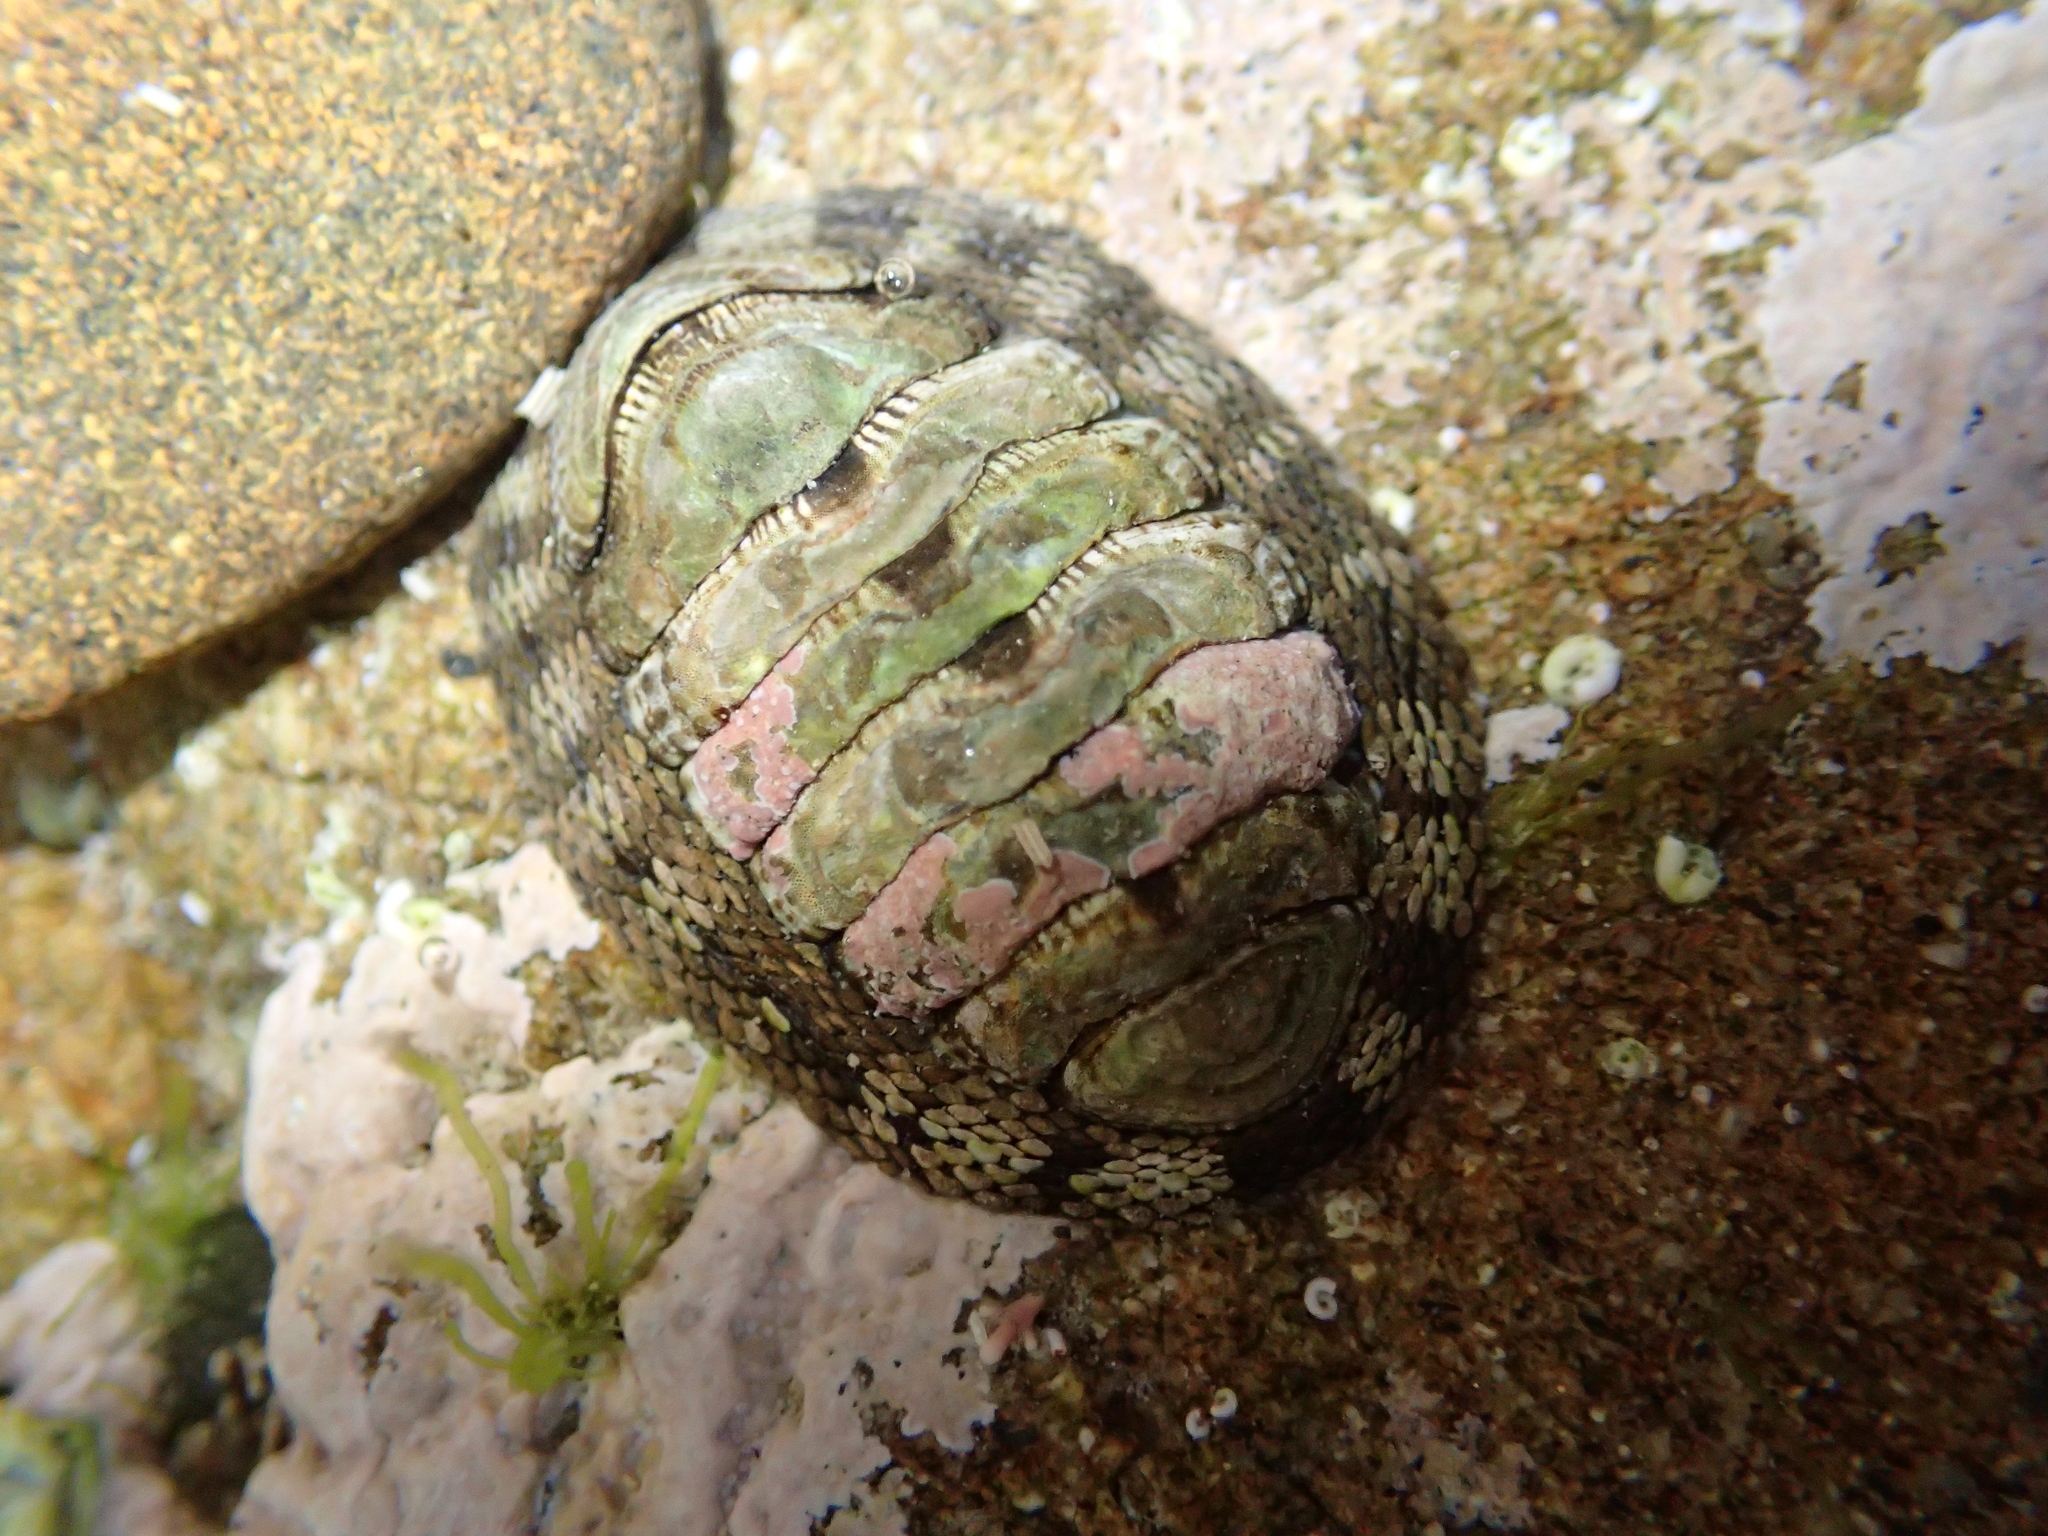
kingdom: Animalia
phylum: Mollusca
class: Polyplacophora
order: Chitonida
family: Chitonidae
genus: Sypharochiton
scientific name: Sypharochiton pelliserpentis
